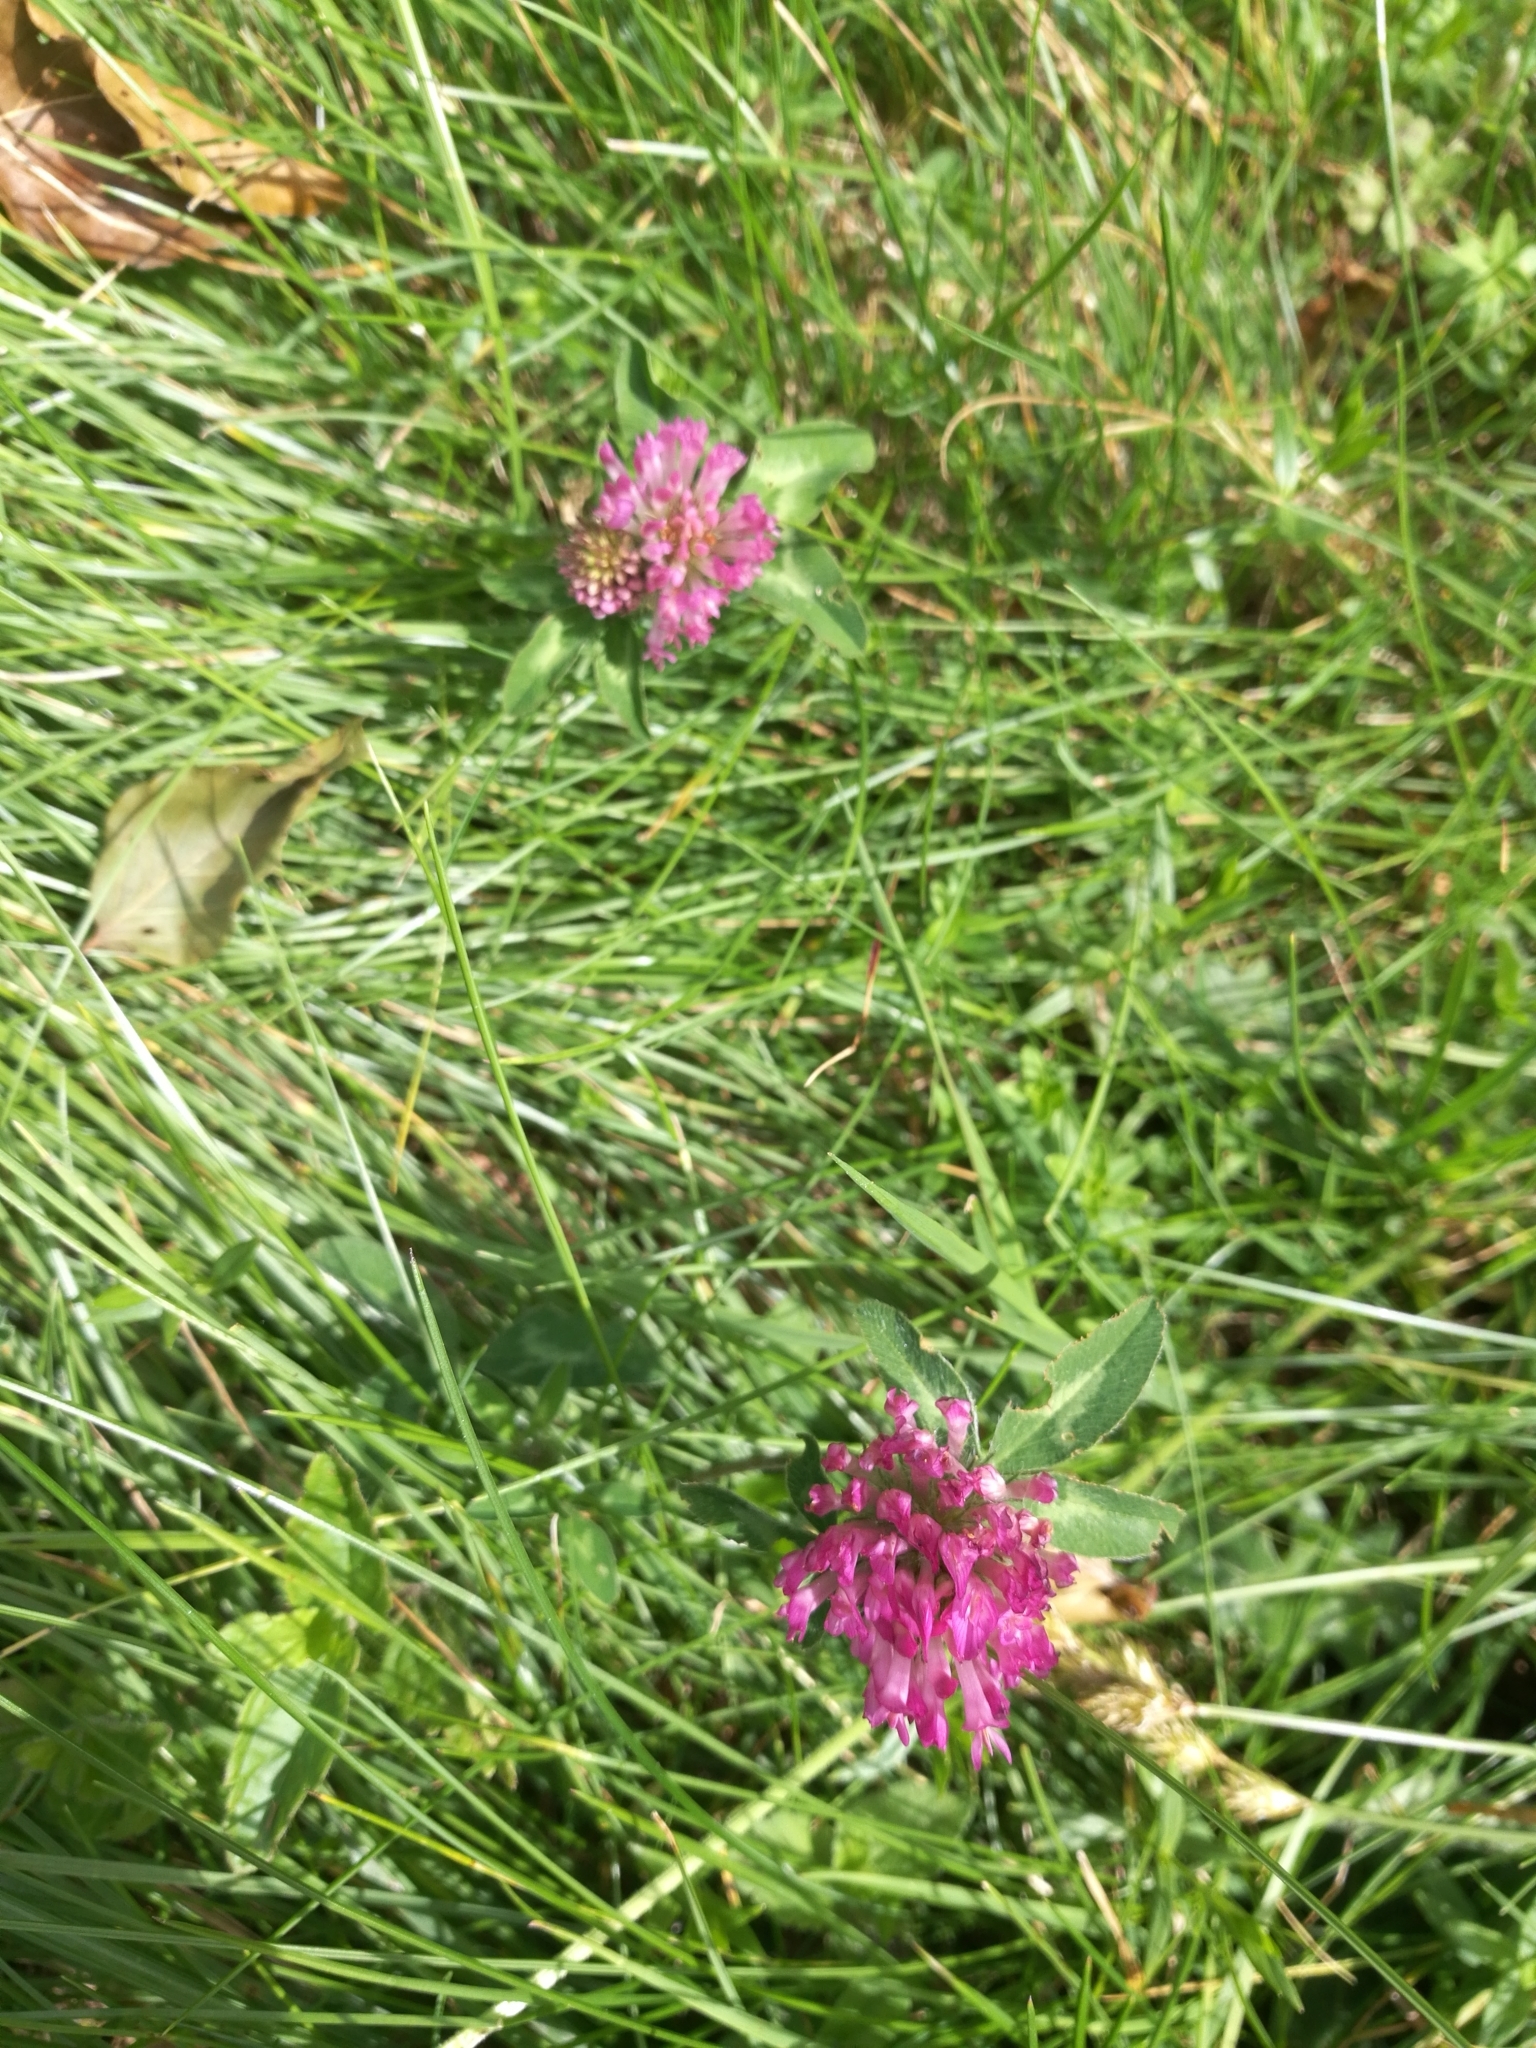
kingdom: Plantae
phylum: Tracheophyta
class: Magnoliopsida
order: Fabales
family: Fabaceae
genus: Trifolium
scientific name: Trifolium pratense
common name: Red clover
